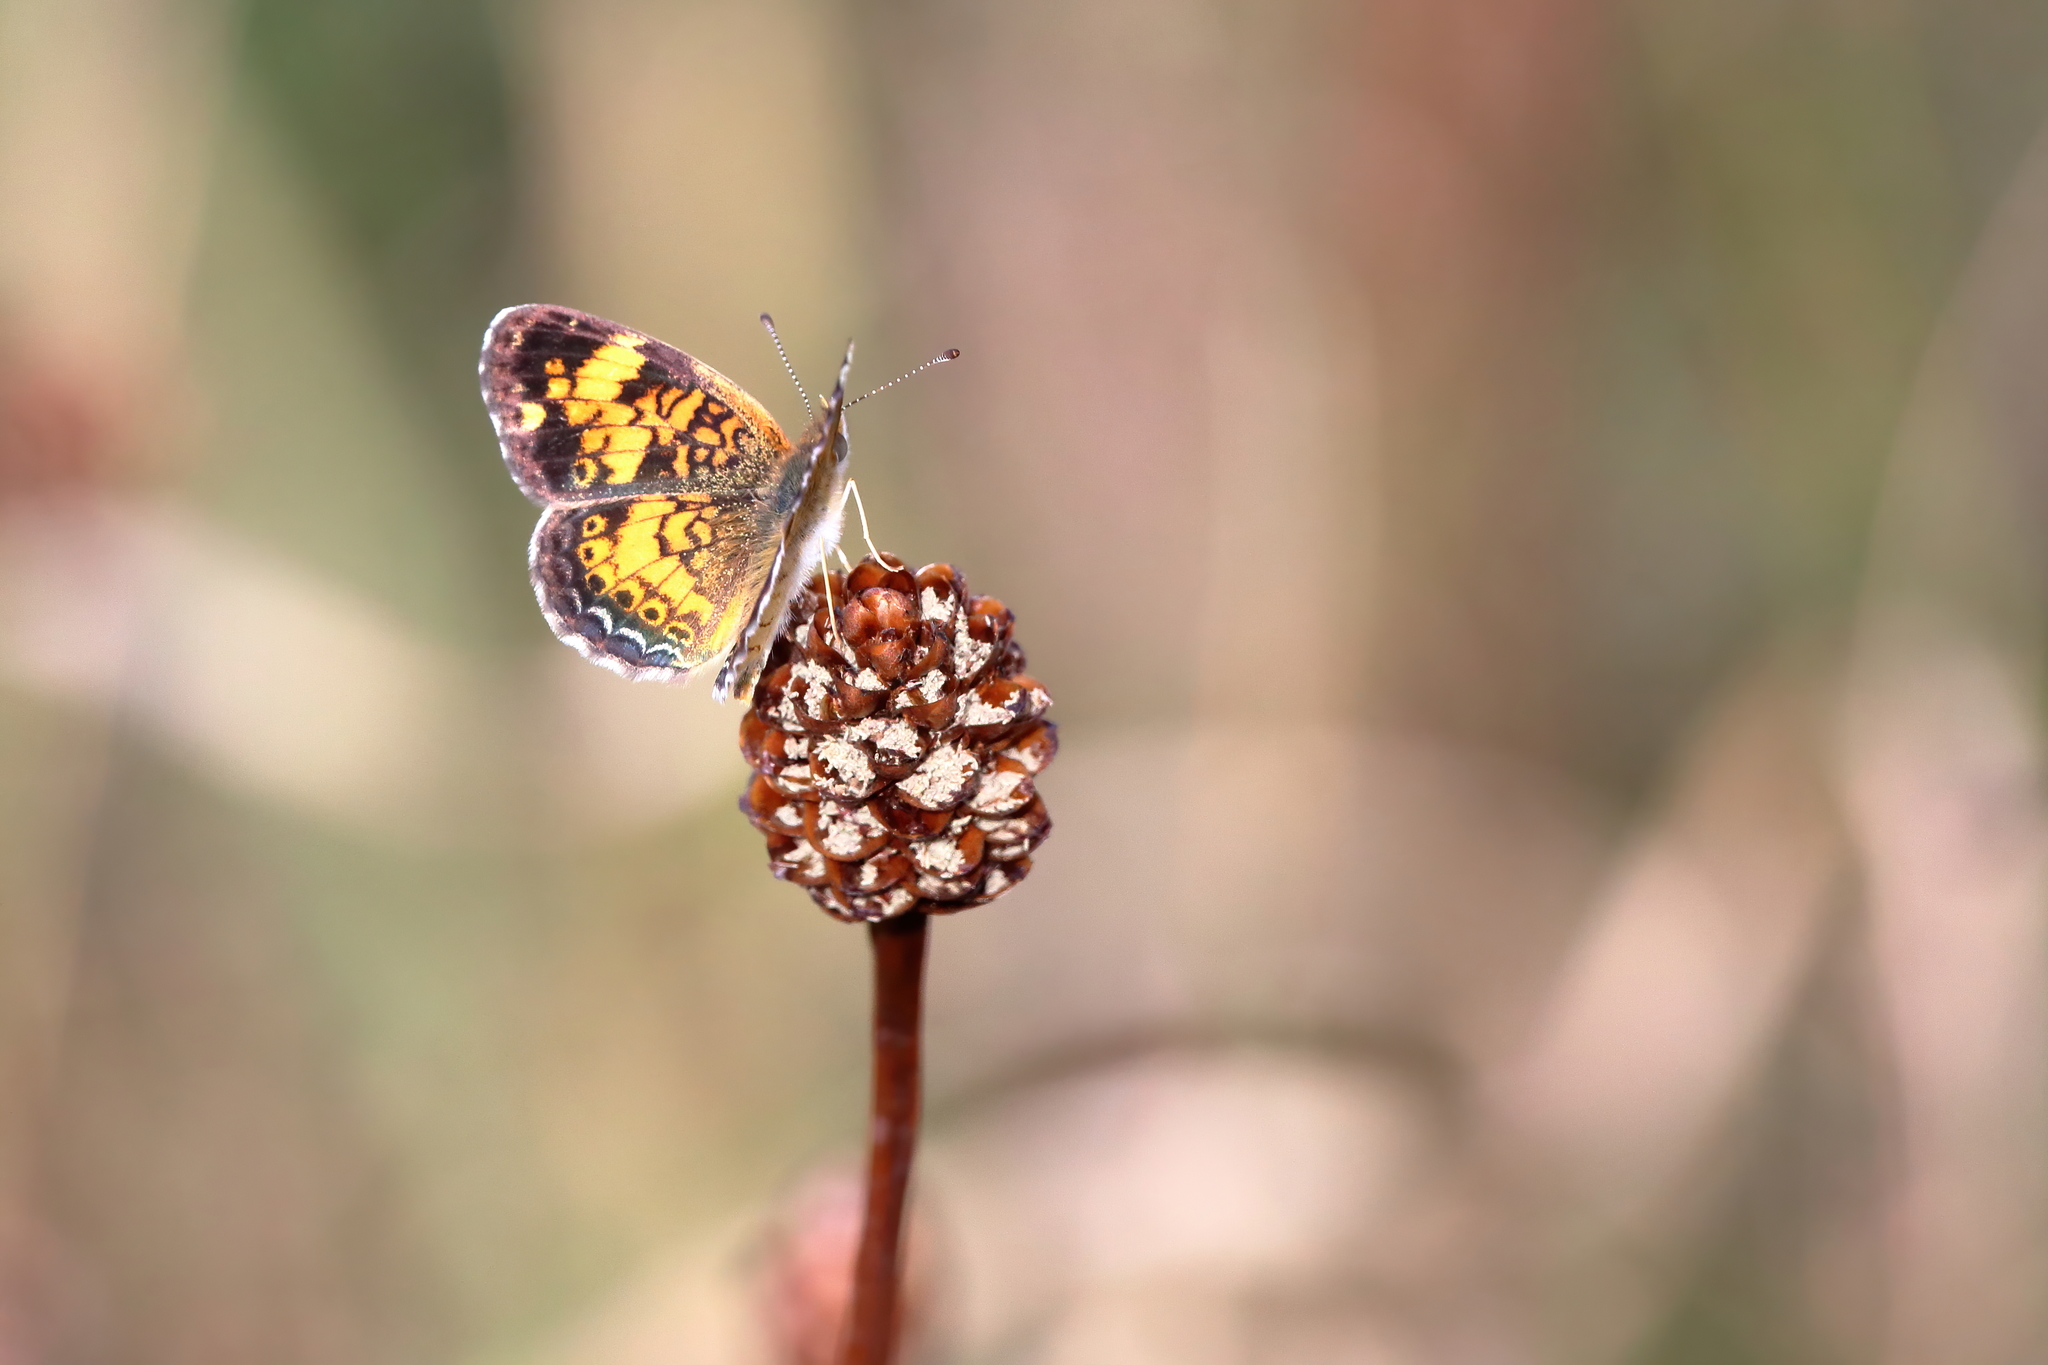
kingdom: Animalia
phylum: Arthropoda
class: Insecta
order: Lepidoptera
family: Nymphalidae
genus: Phyciodes
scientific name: Phyciodes tharos
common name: Pearl crescent
